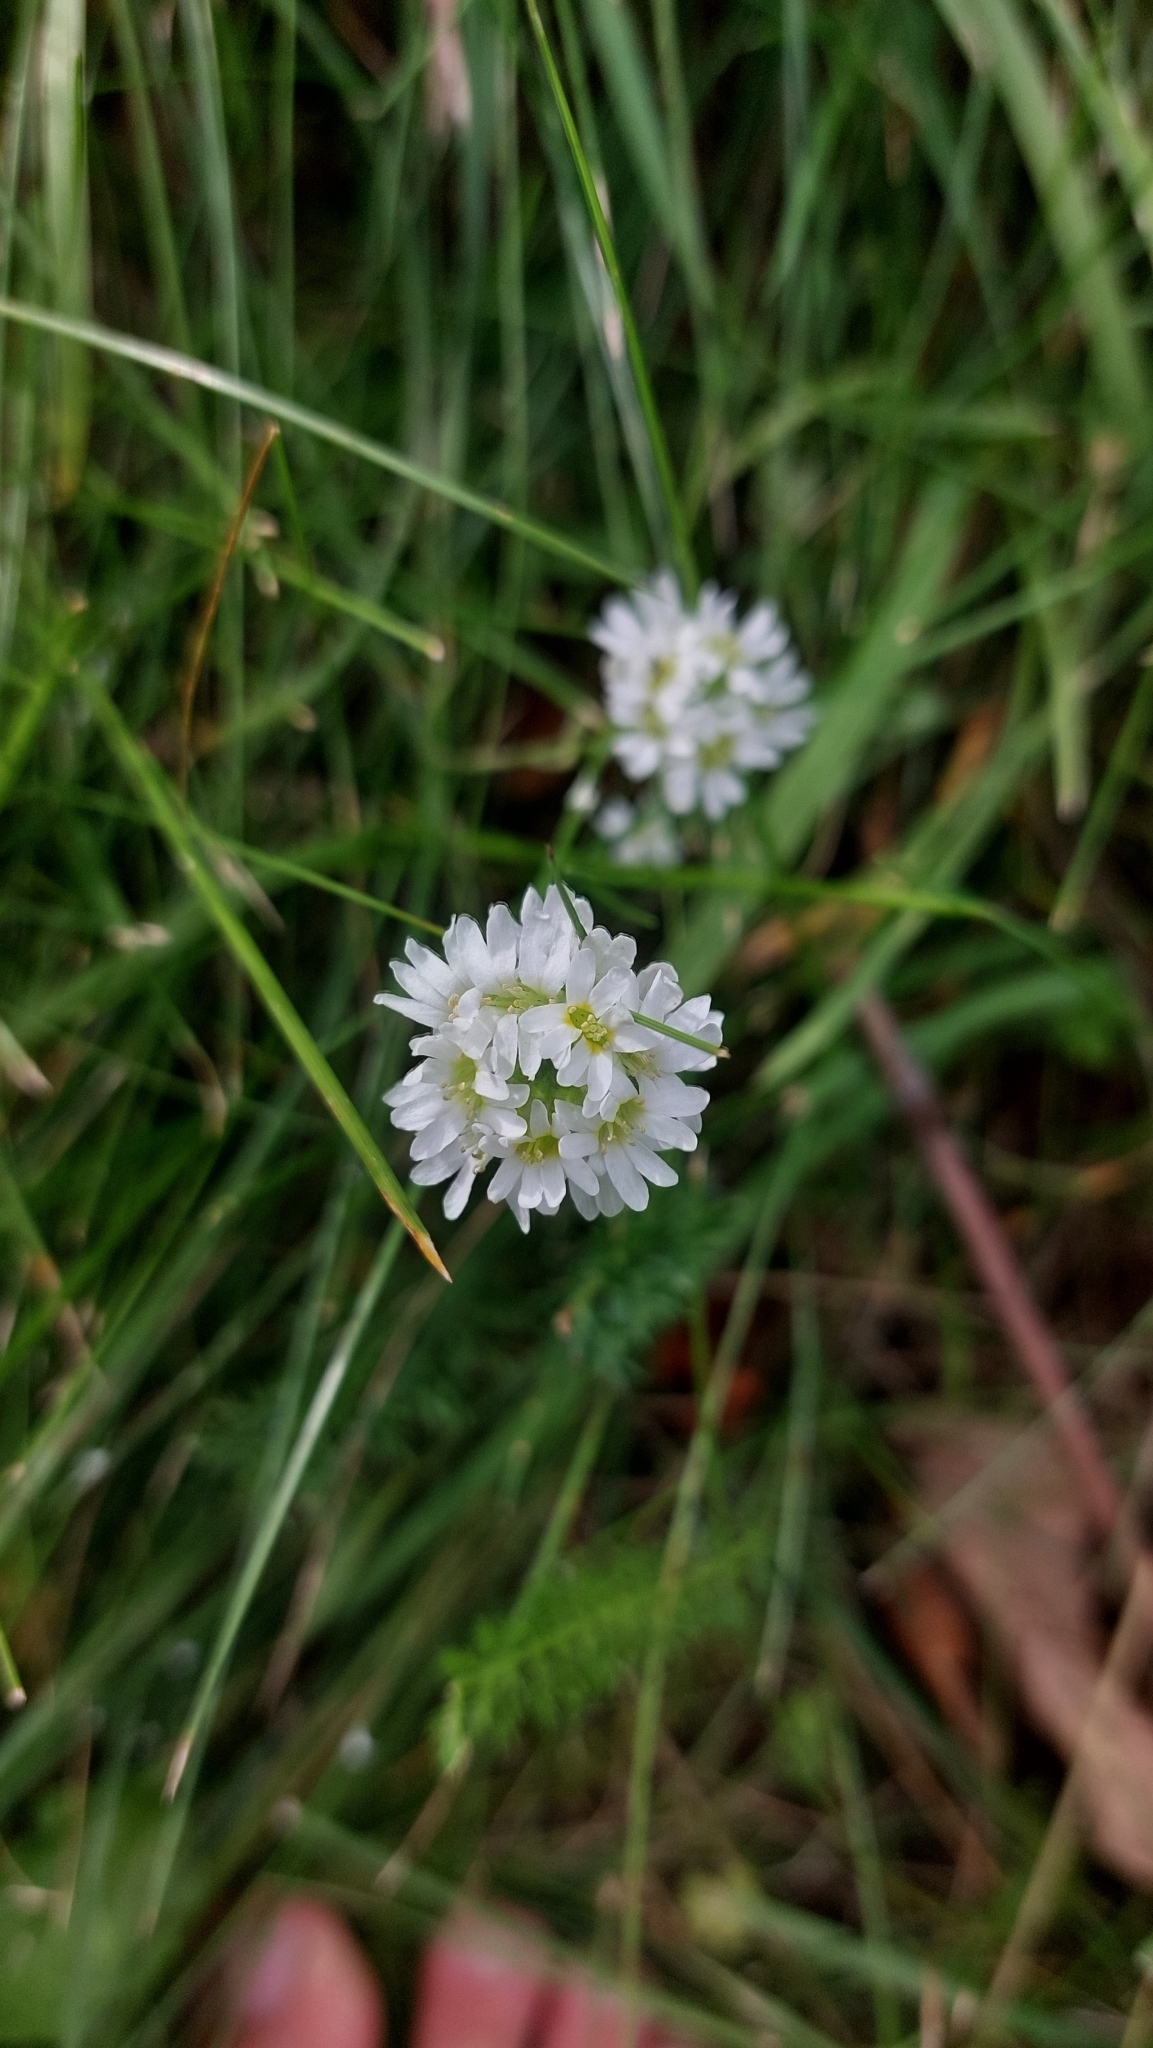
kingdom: Plantae
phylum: Tracheophyta
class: Magnoliopsida
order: Brassicales
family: Brassicaceae
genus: Berteroa
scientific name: Berteroa incana
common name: Hoary alison
